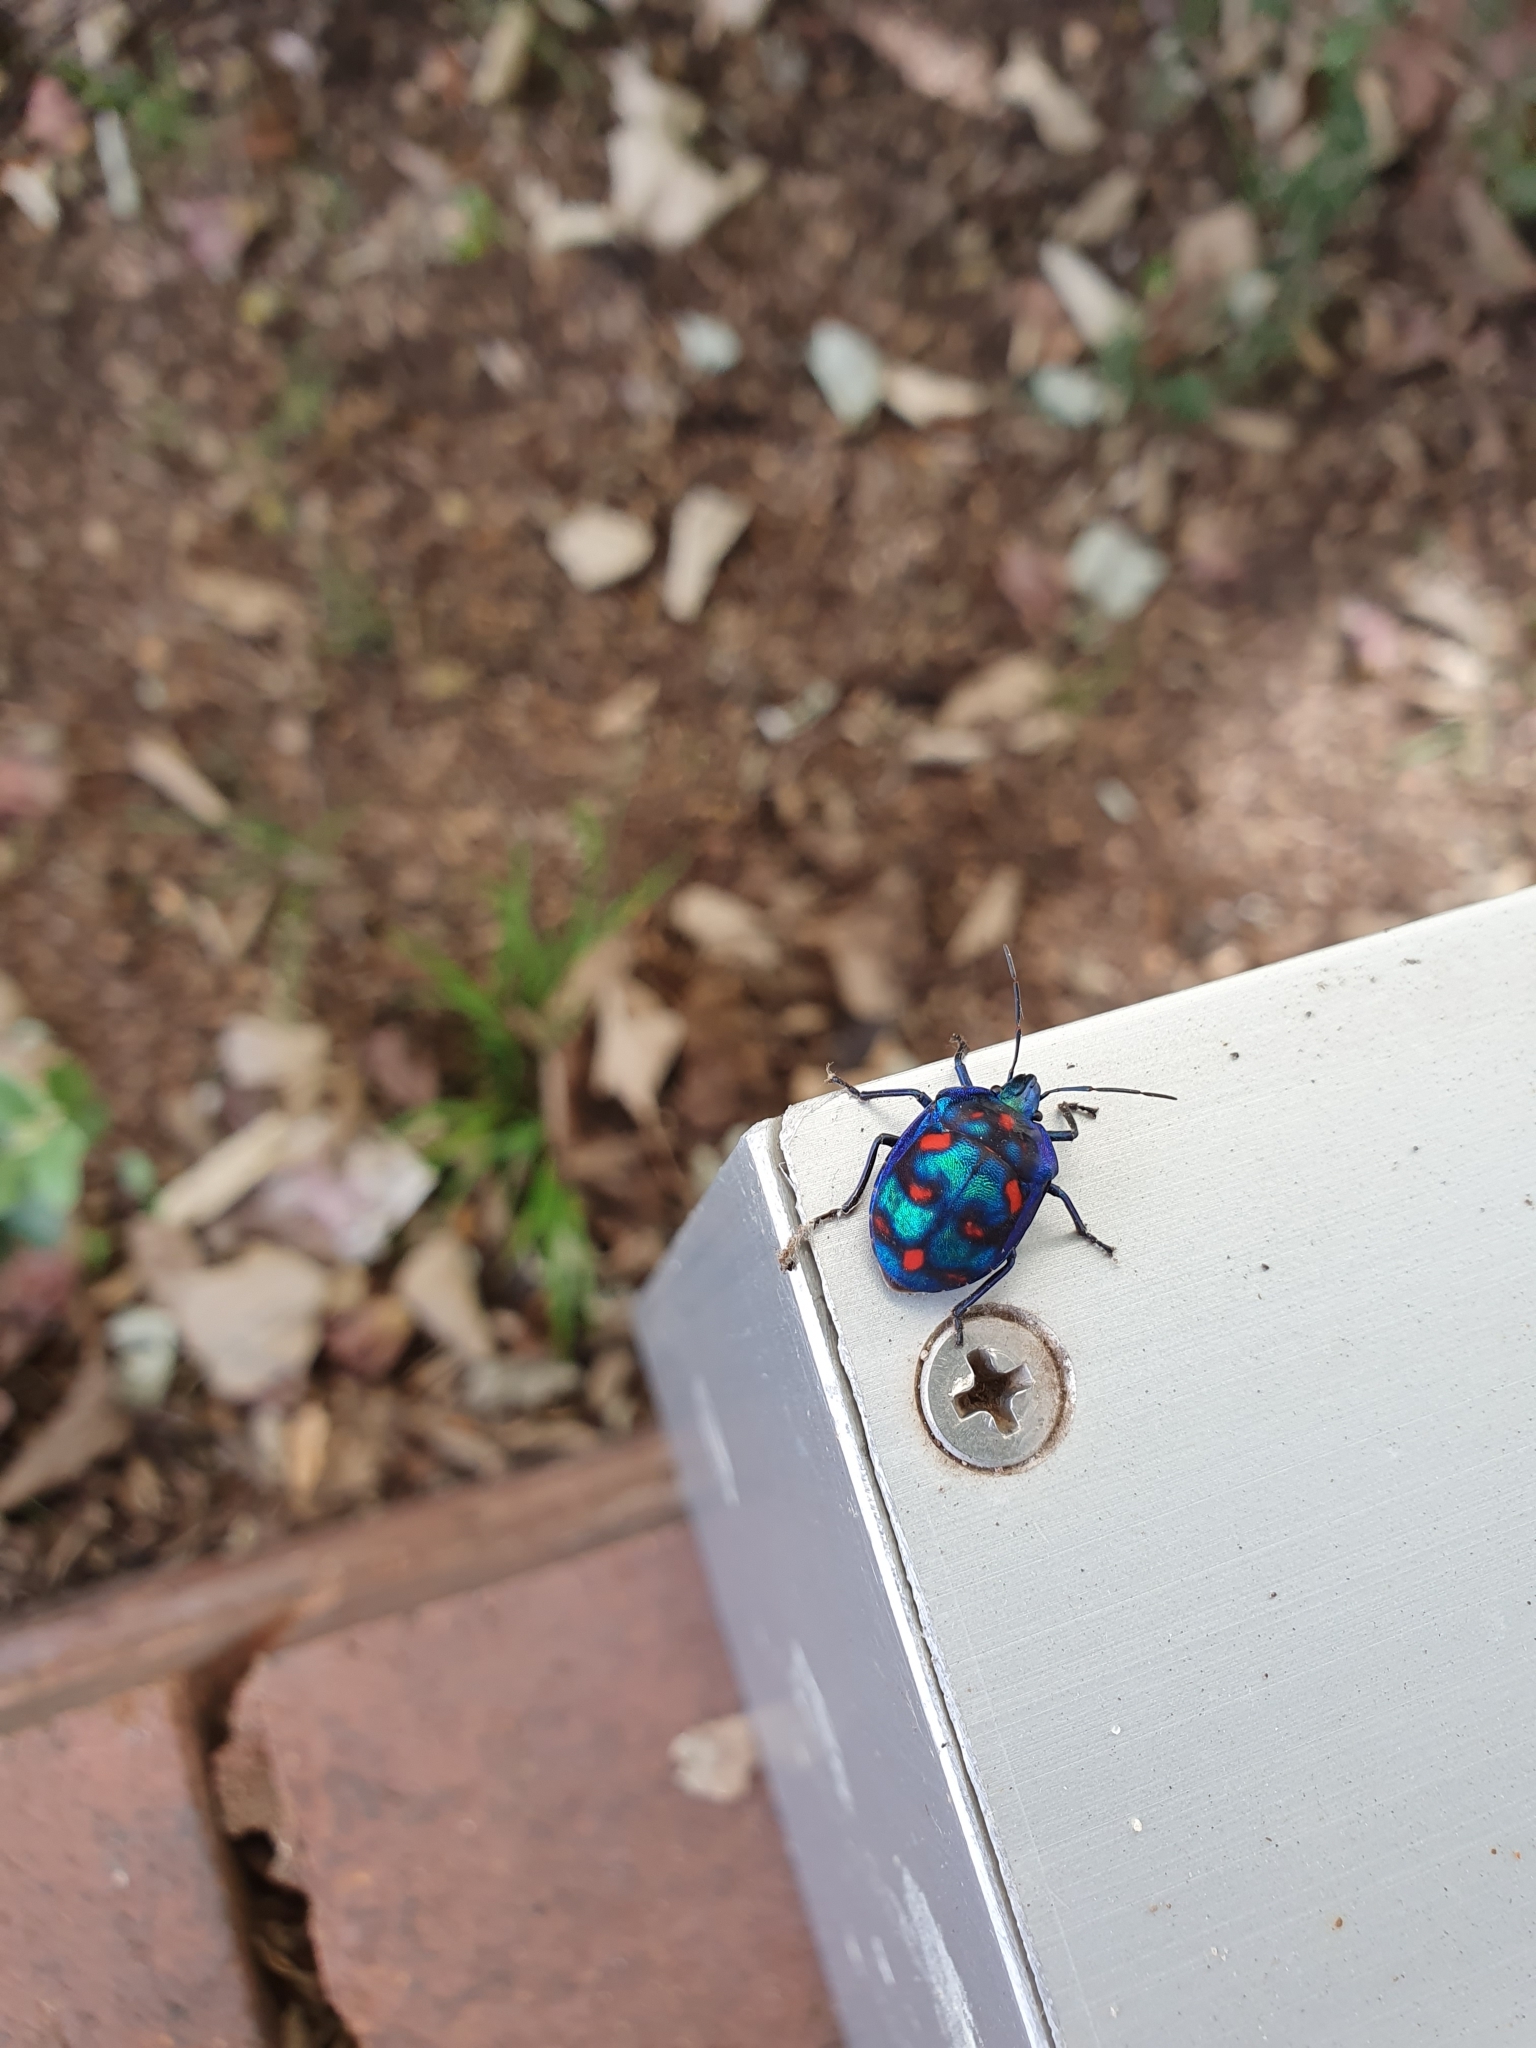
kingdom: Animalia
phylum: Arthropoda
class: Insecta
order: Hemiptera
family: Scutelleridae
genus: Tectocoris
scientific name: Tectocoris diophthalmus
